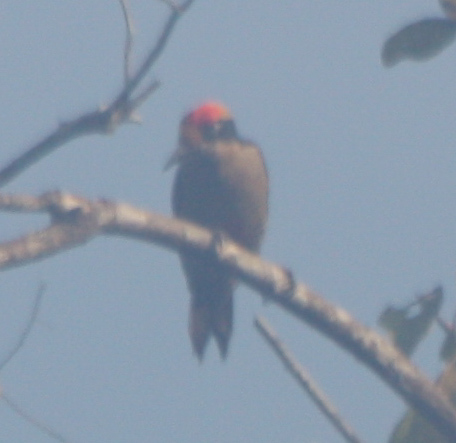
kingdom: Animalia
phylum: Chordata
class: Aves
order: Piciformes
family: Picidae
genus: Melanerpes
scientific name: Melanerpes chrysauchen
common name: Golden-naped woodpecker
